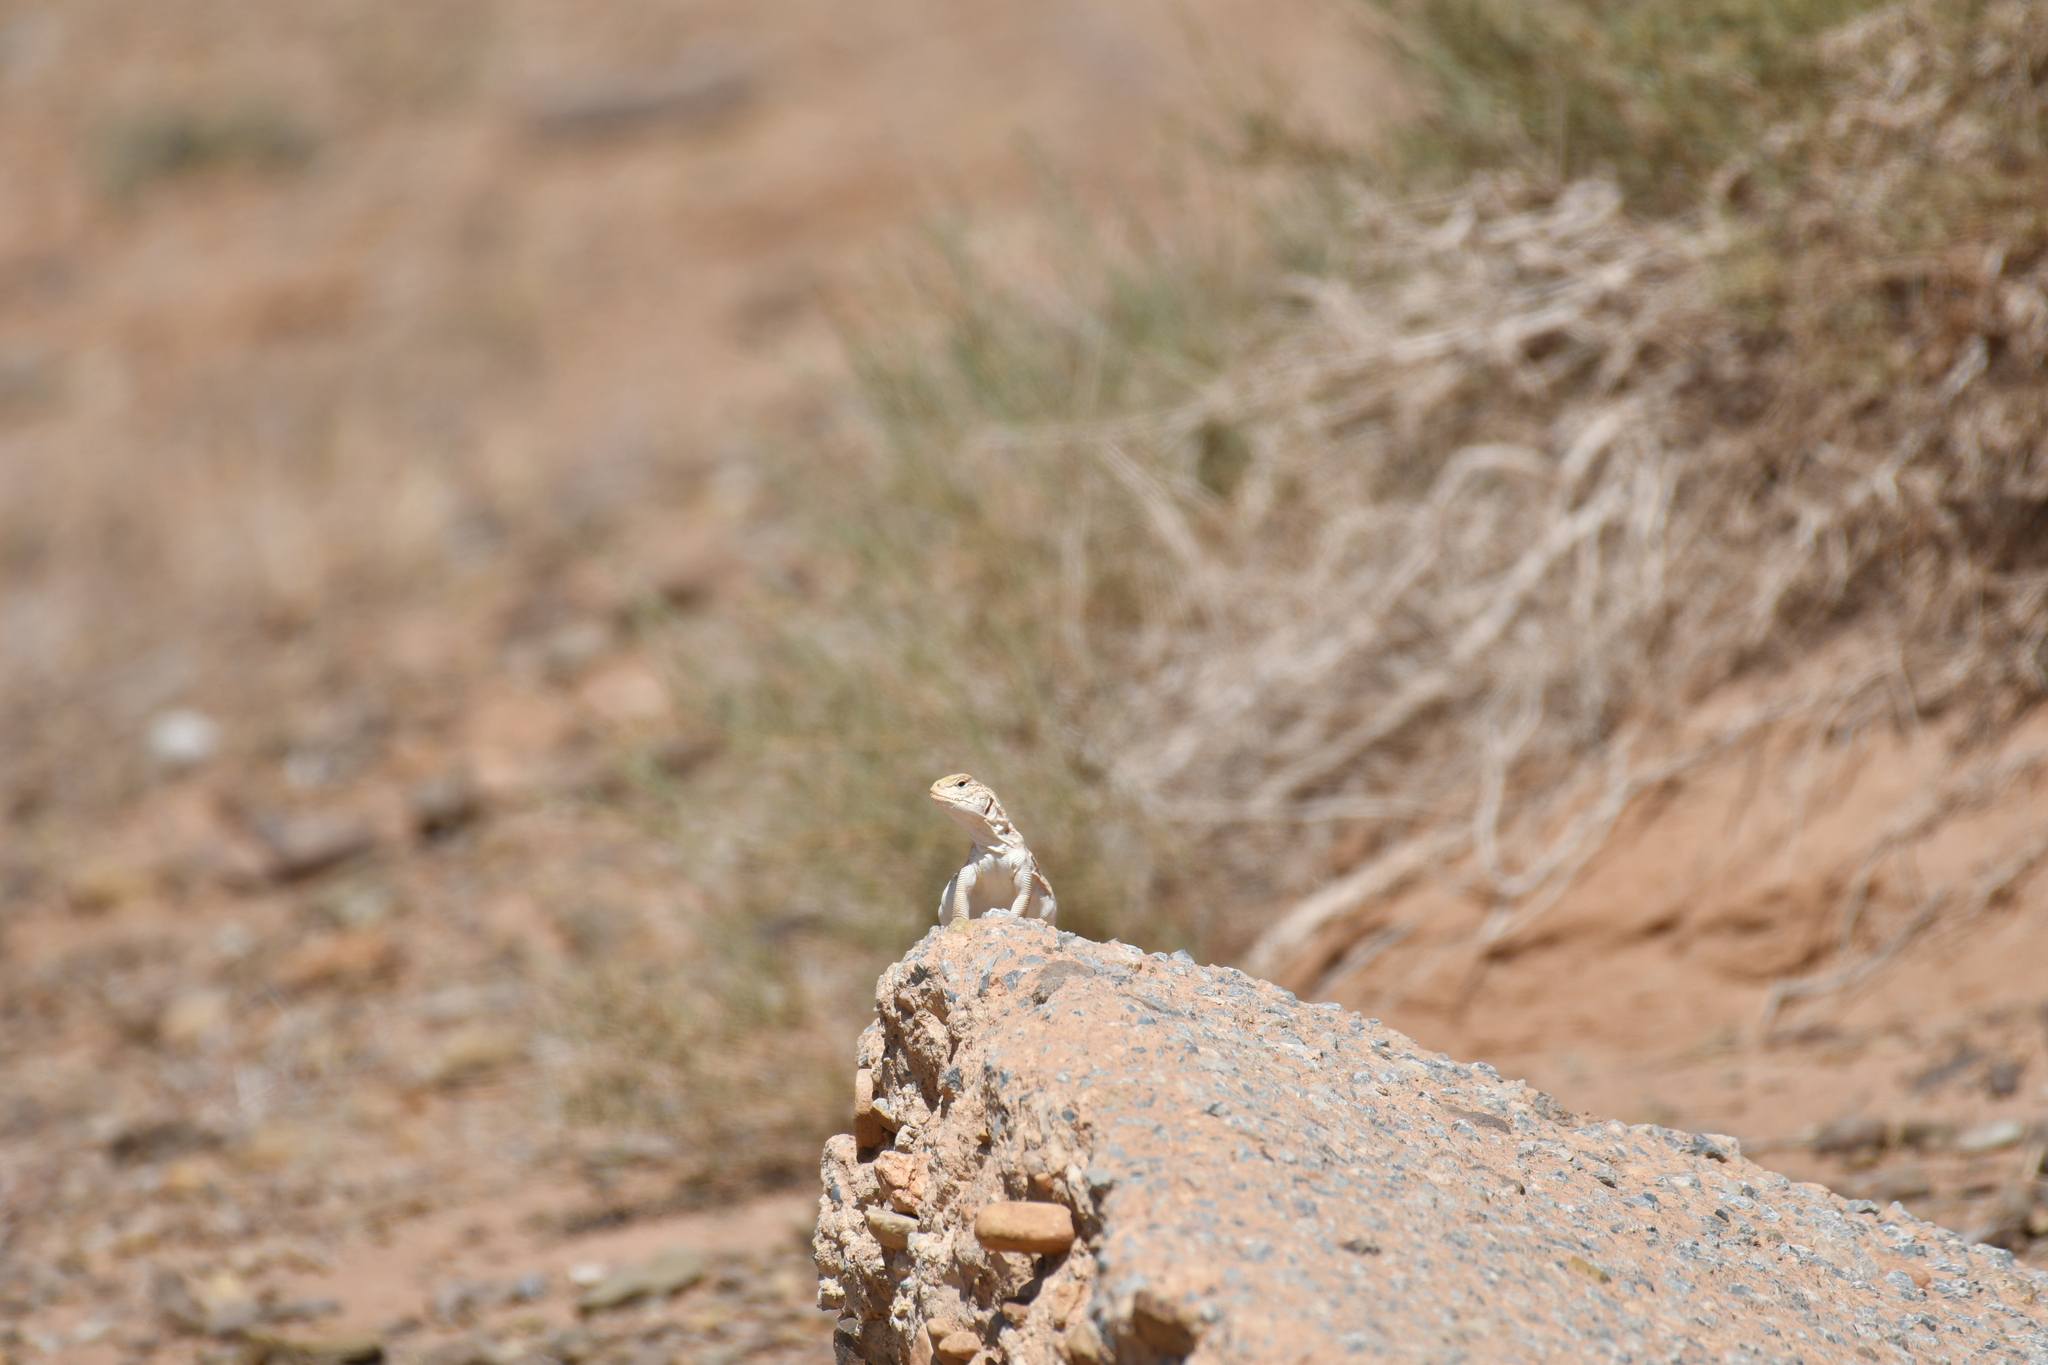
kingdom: Animalia
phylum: Chordata
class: Squamata
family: Agamidae
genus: Uromastyx
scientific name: Uromastyx nigriventris
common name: Moroccan spiny-tailed lizard
